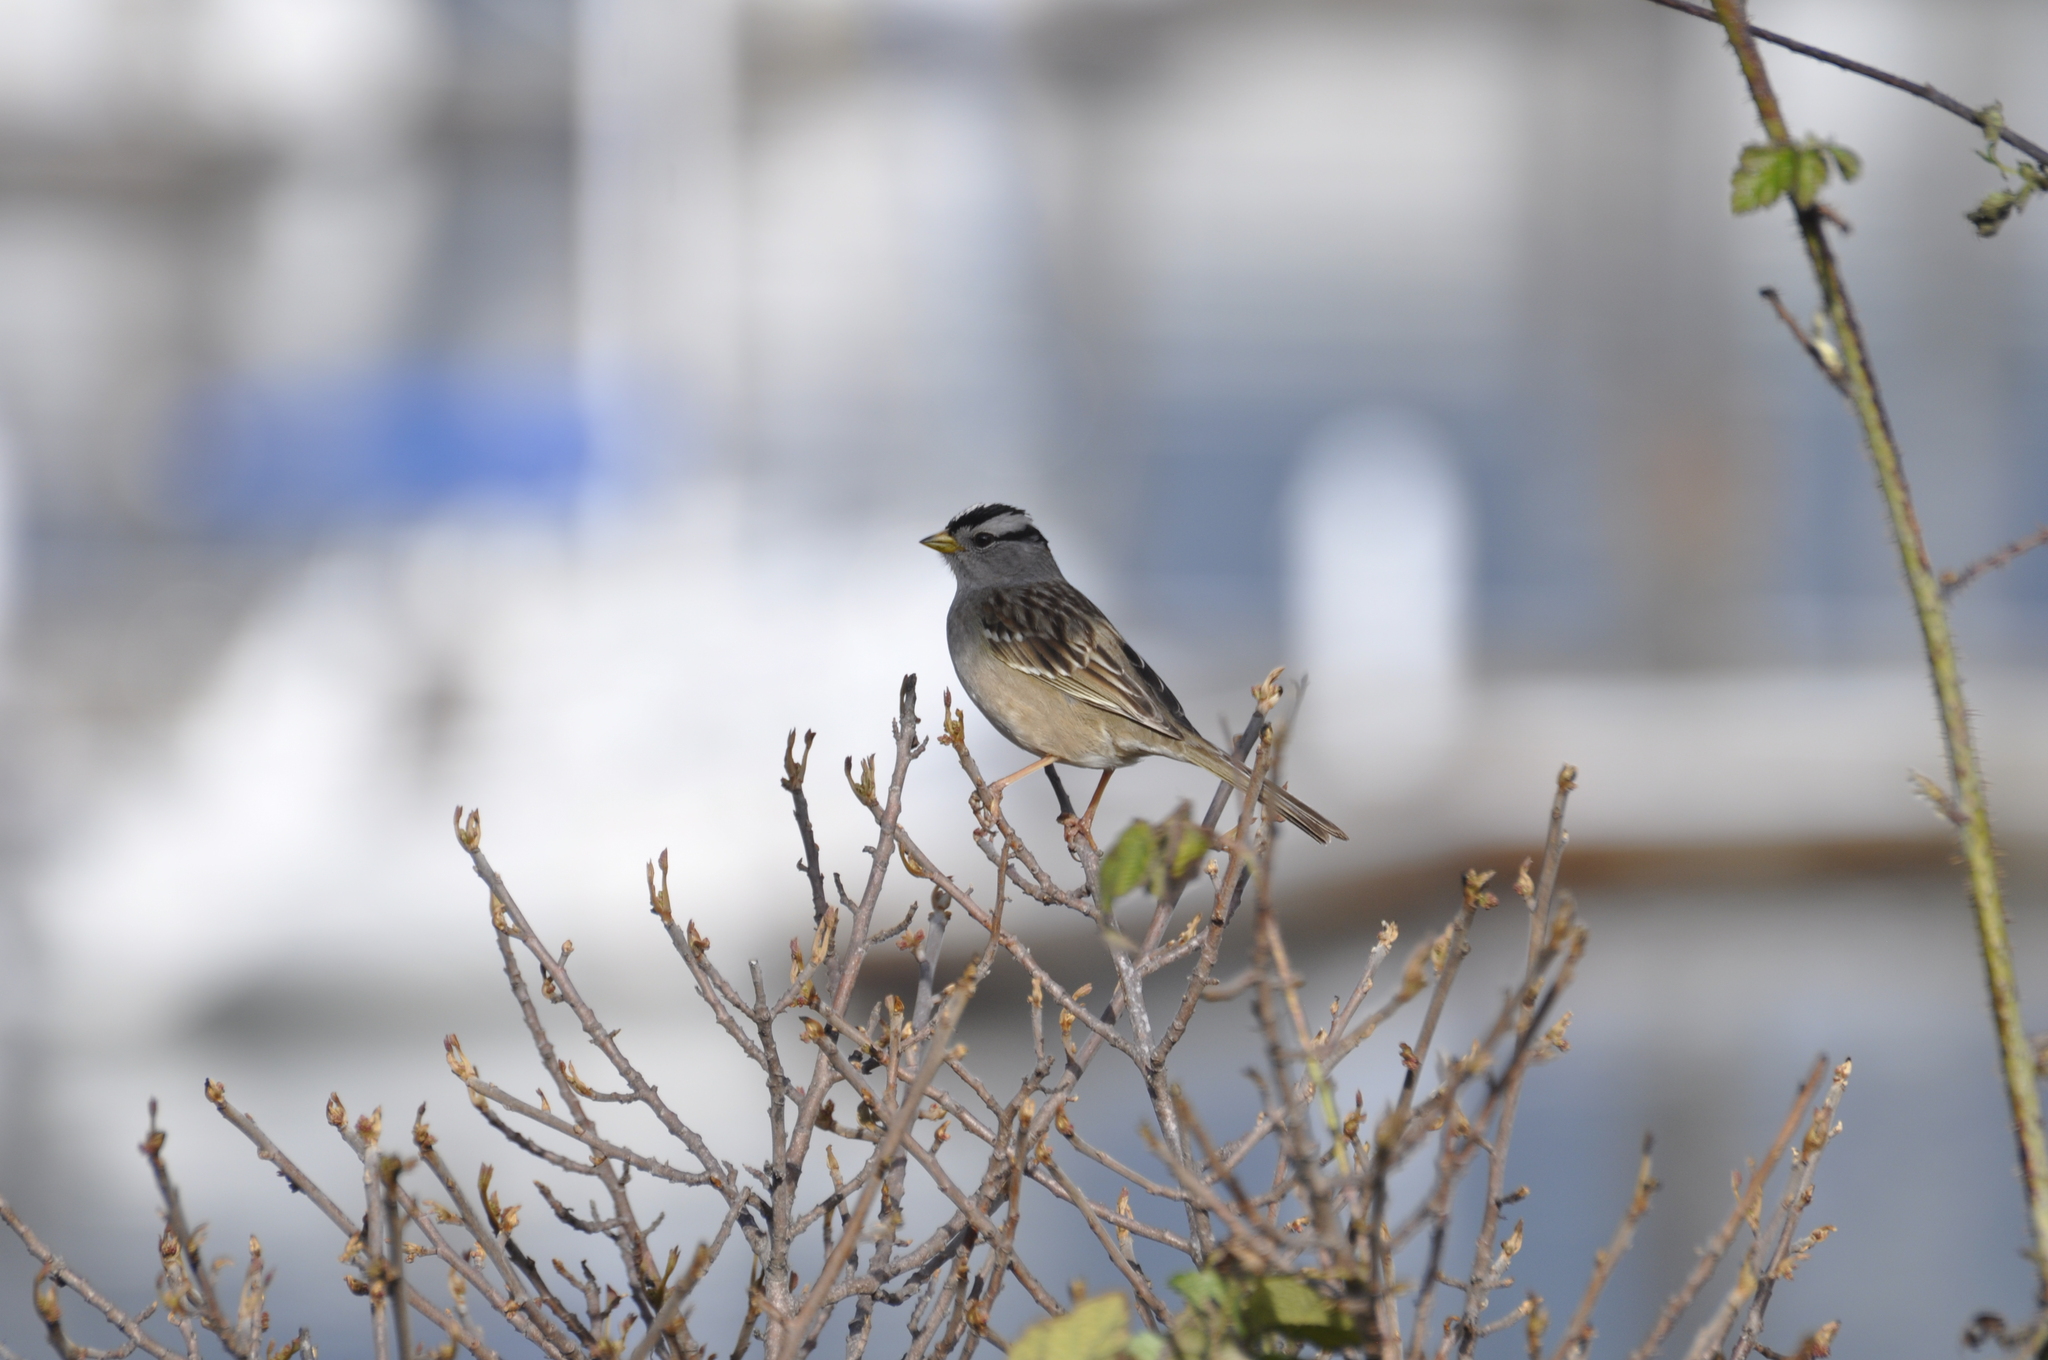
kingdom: Animalia
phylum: Chordata
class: Aves
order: Passeriformes
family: Passerellidae
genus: Zonotrichia
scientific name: Zonotrichia leucophrys
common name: White-crowned sparrow
